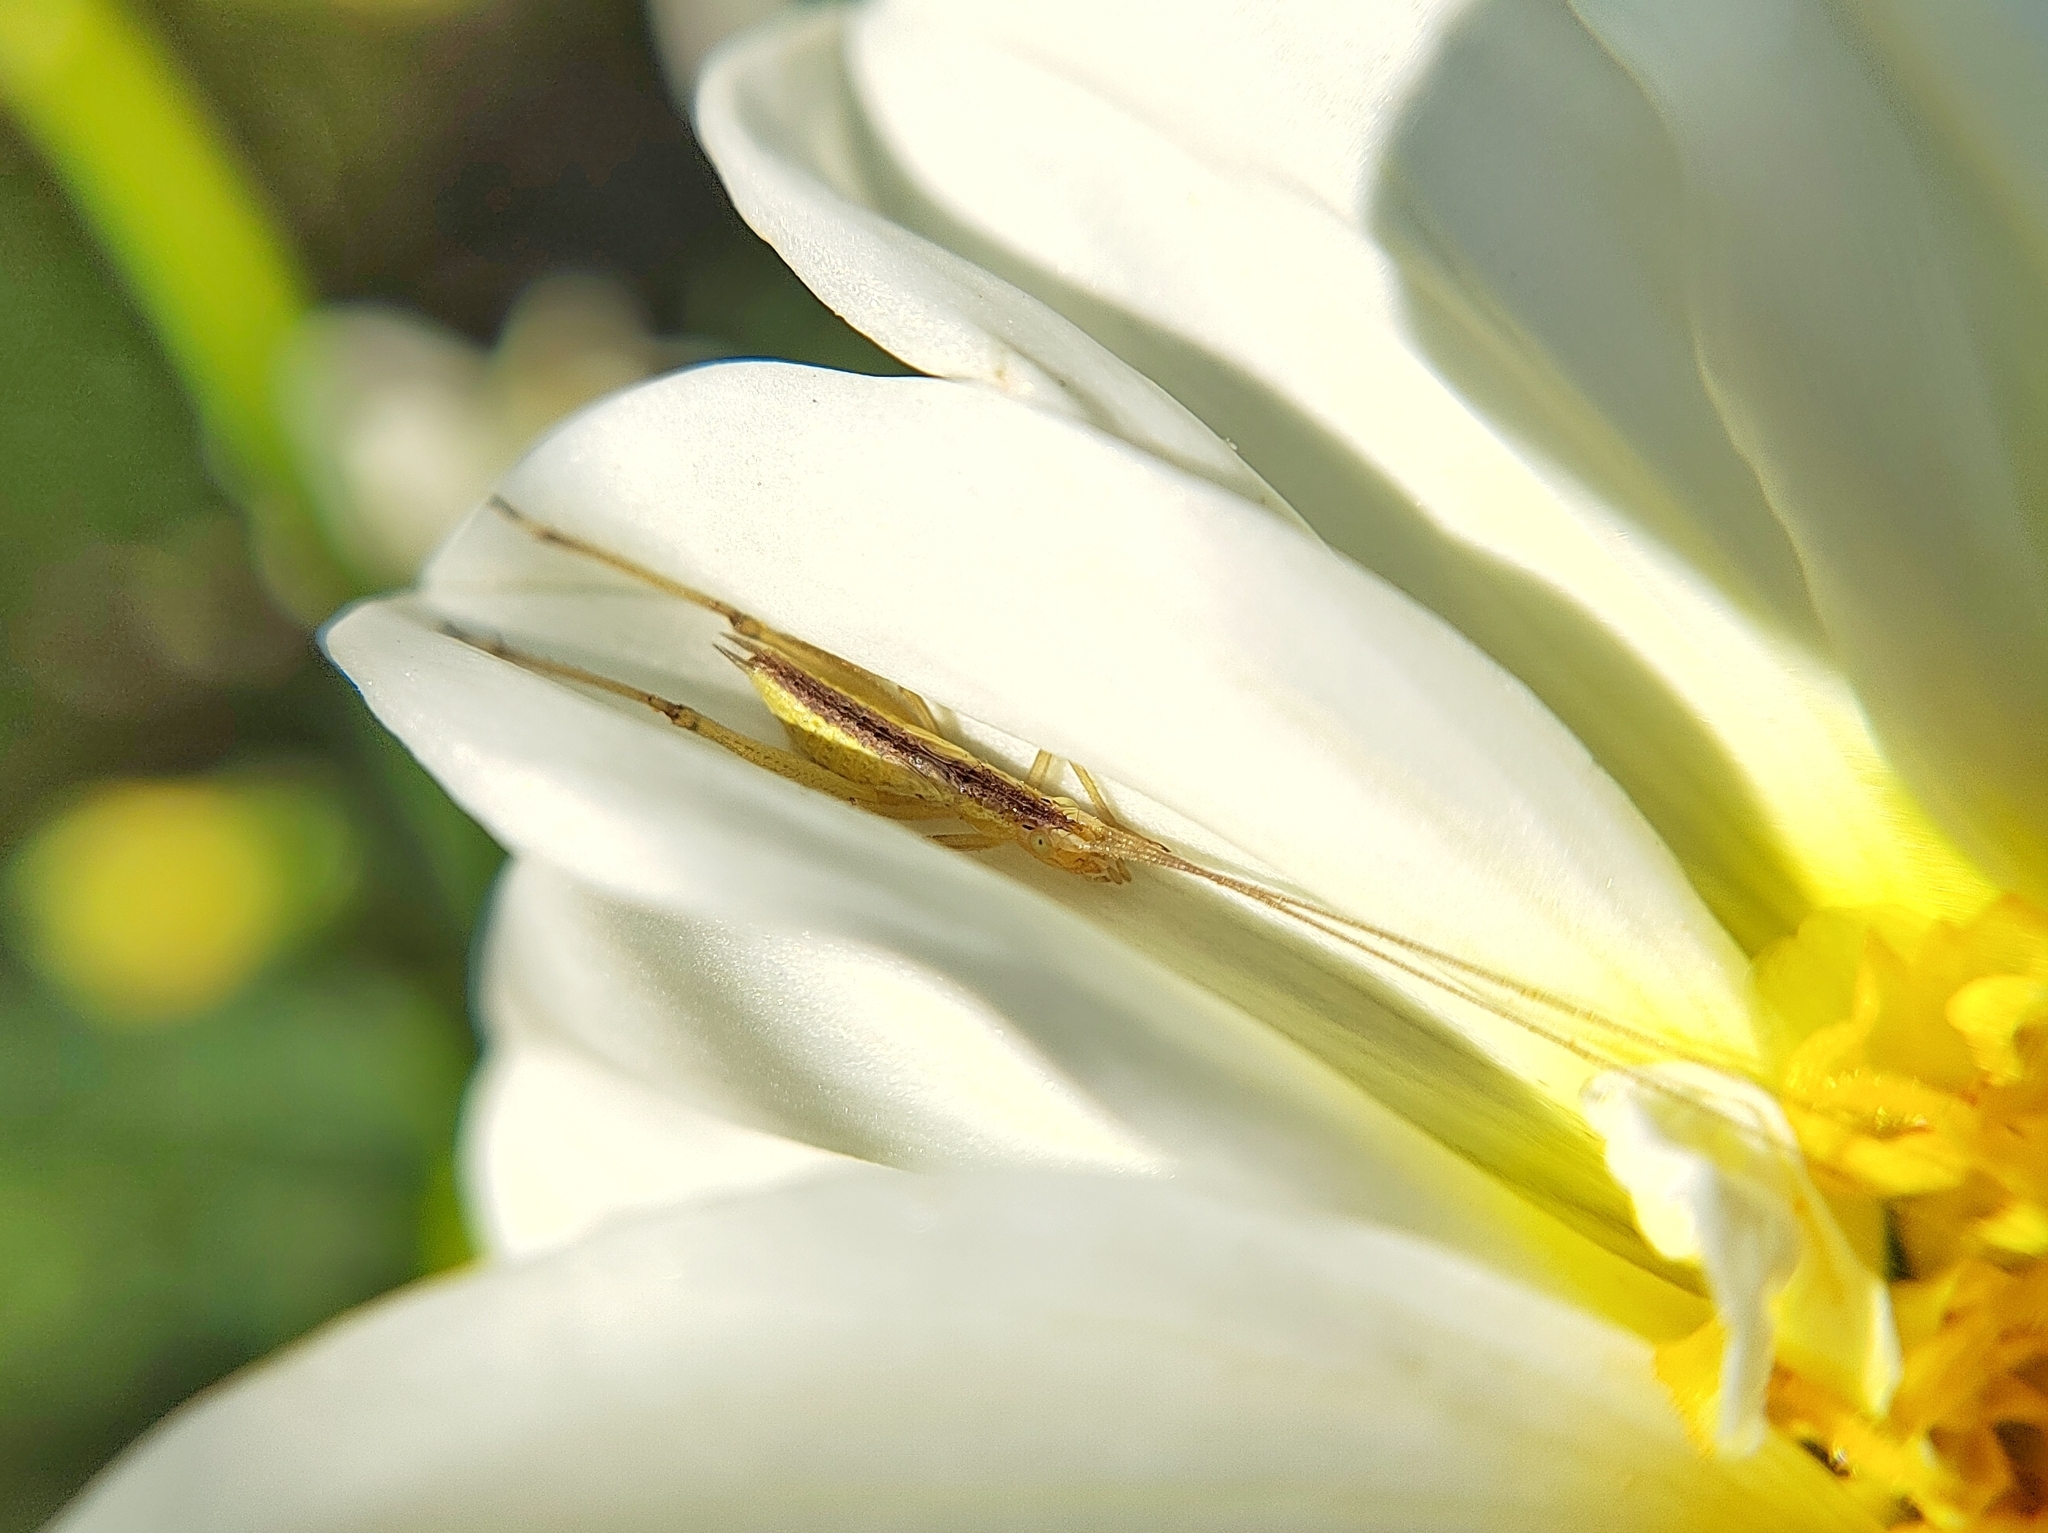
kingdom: Animalia
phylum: Arthropoda
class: Insecta
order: Orthoptera
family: Gryllidae
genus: Oecanthus
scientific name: Oecanthus pellucens
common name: Tree-cricket
